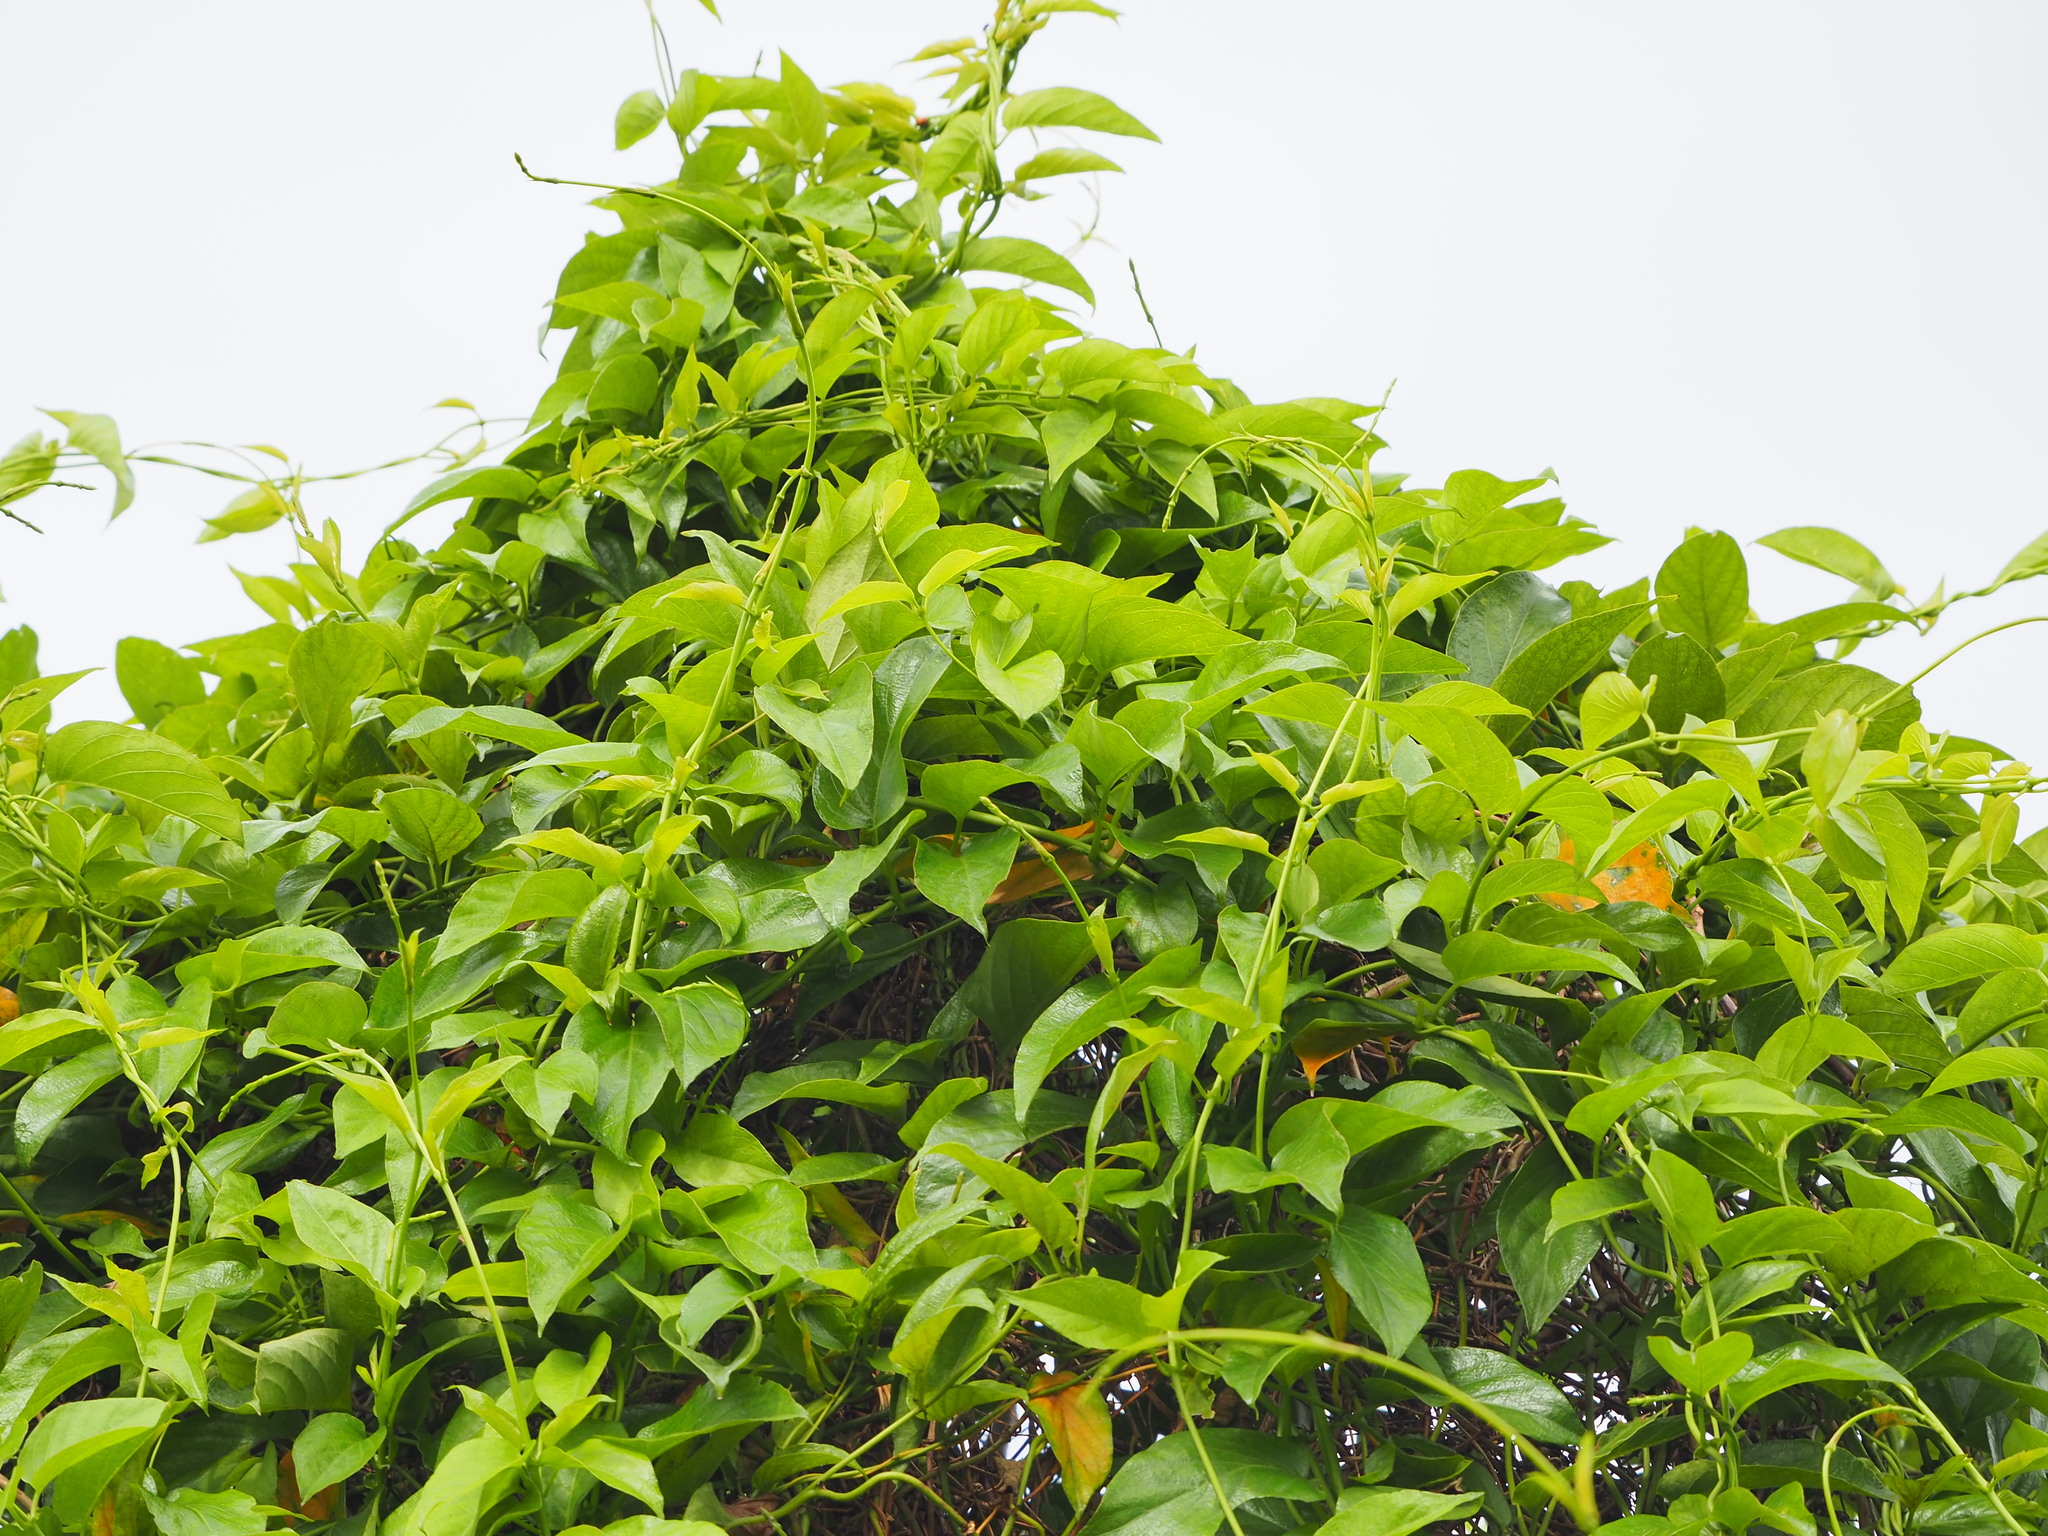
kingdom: Plantae
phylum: Tracheophyta
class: Magnoliopsida
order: Gentianales
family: Rubiaceae
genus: Paederia
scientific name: Paederia foetida
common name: Stinkvine
